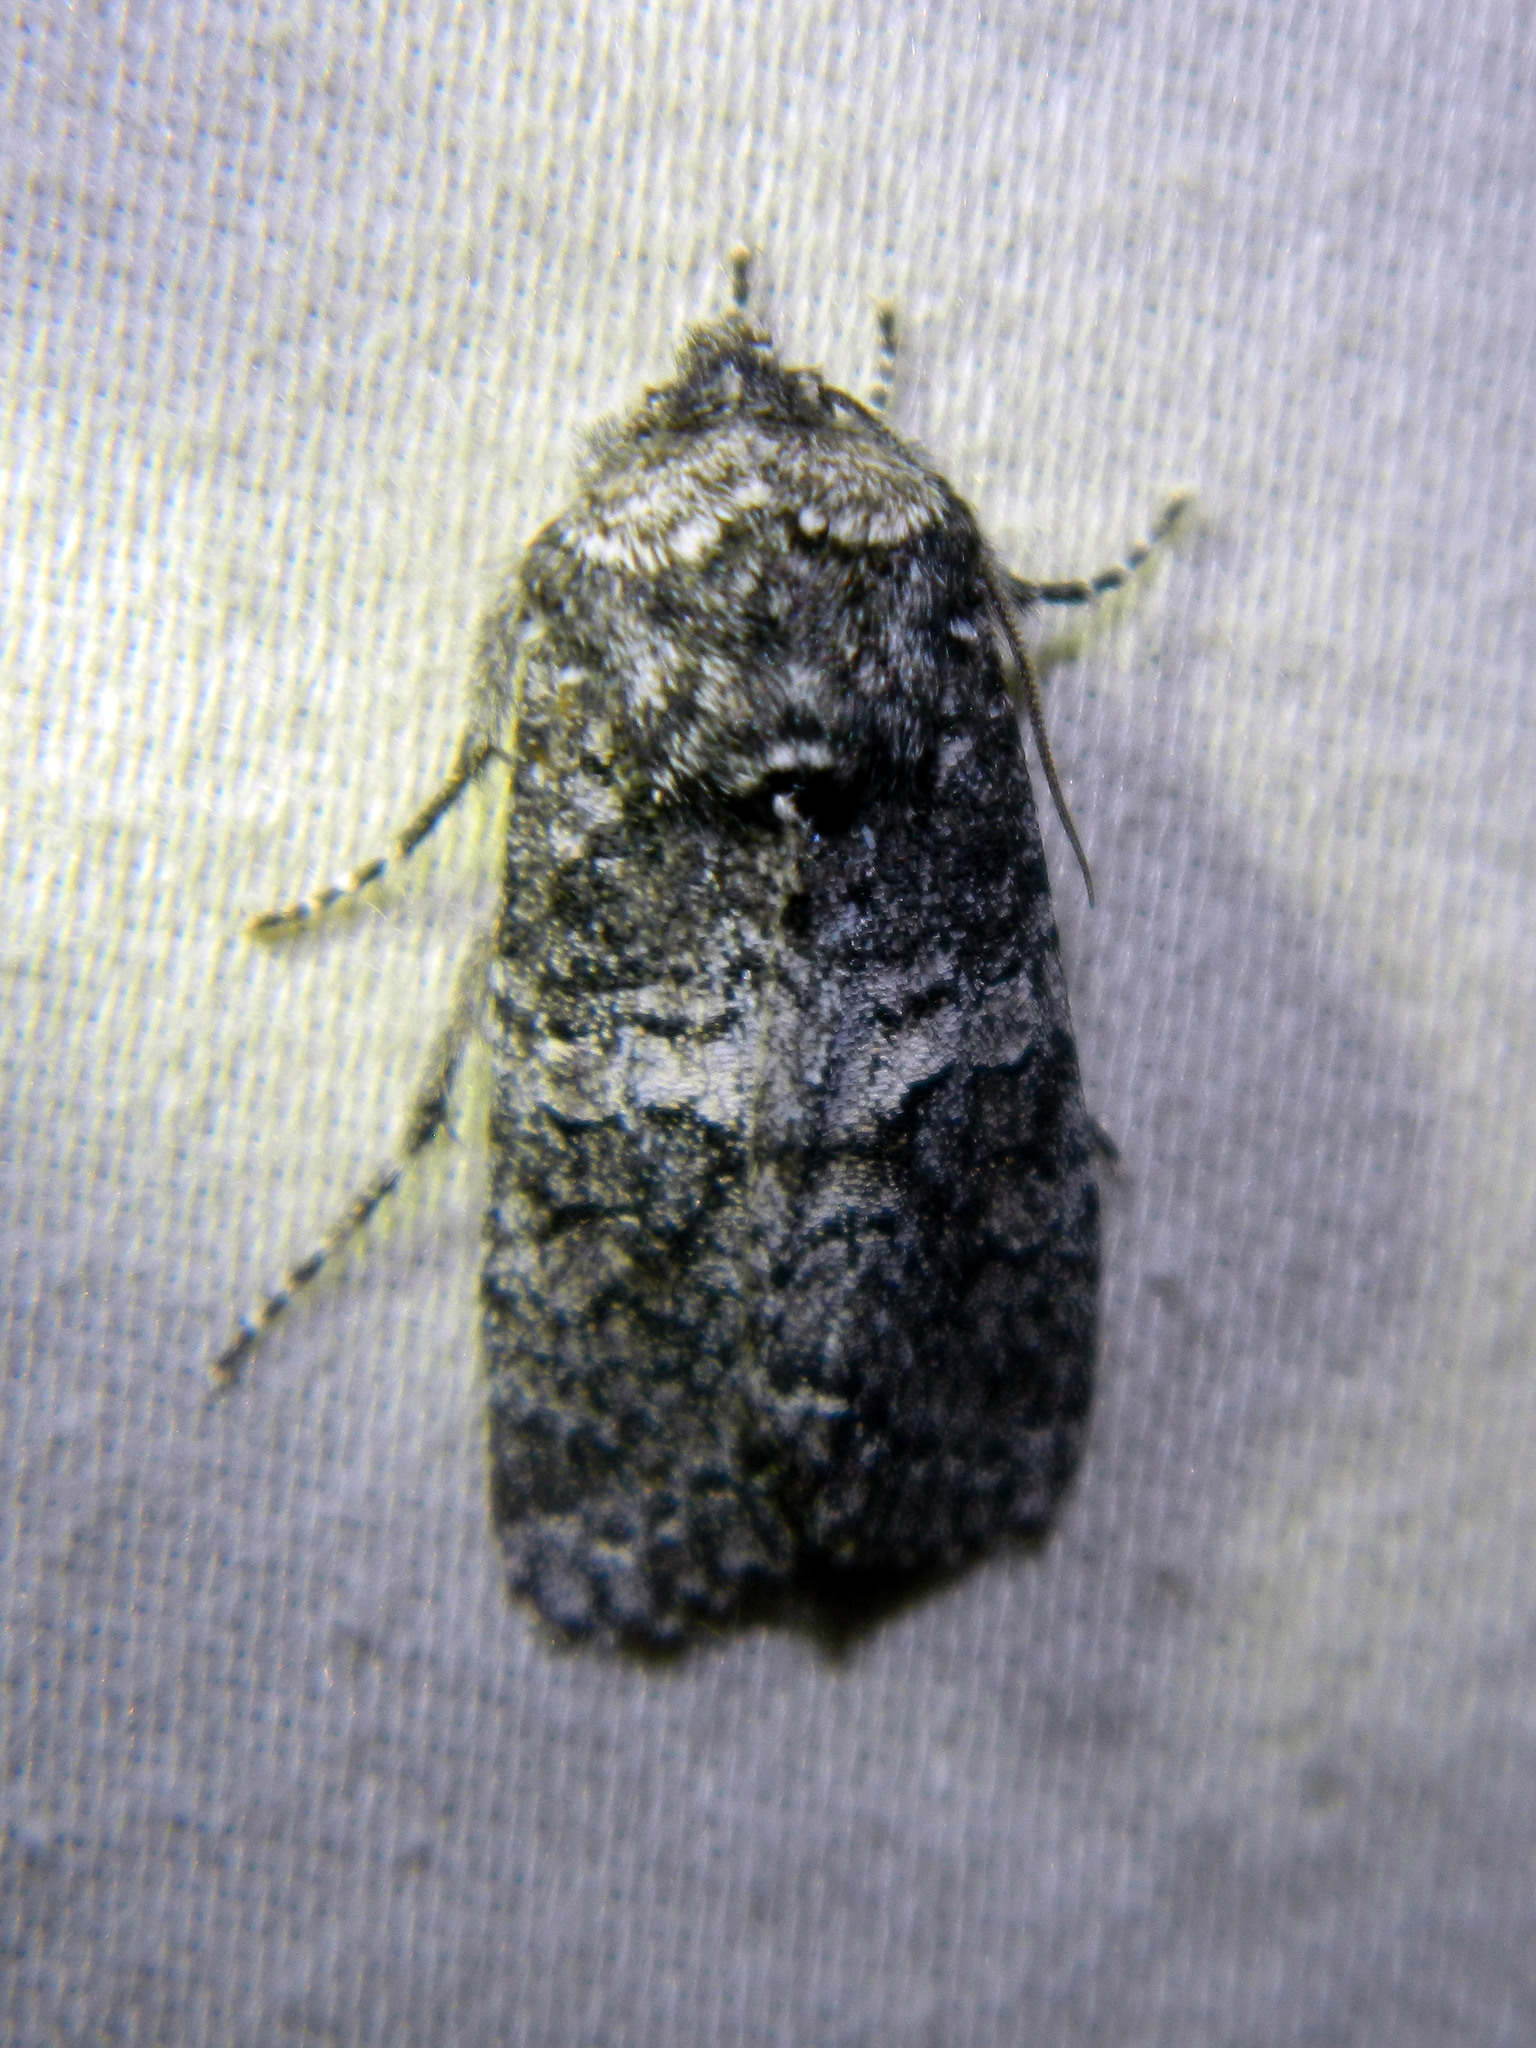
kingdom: Animalia
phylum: Arthropoda
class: Insecta
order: Lepidoptera
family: Noctuidae
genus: Egira
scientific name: Egira dolosa
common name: Lined black aspen cat.
